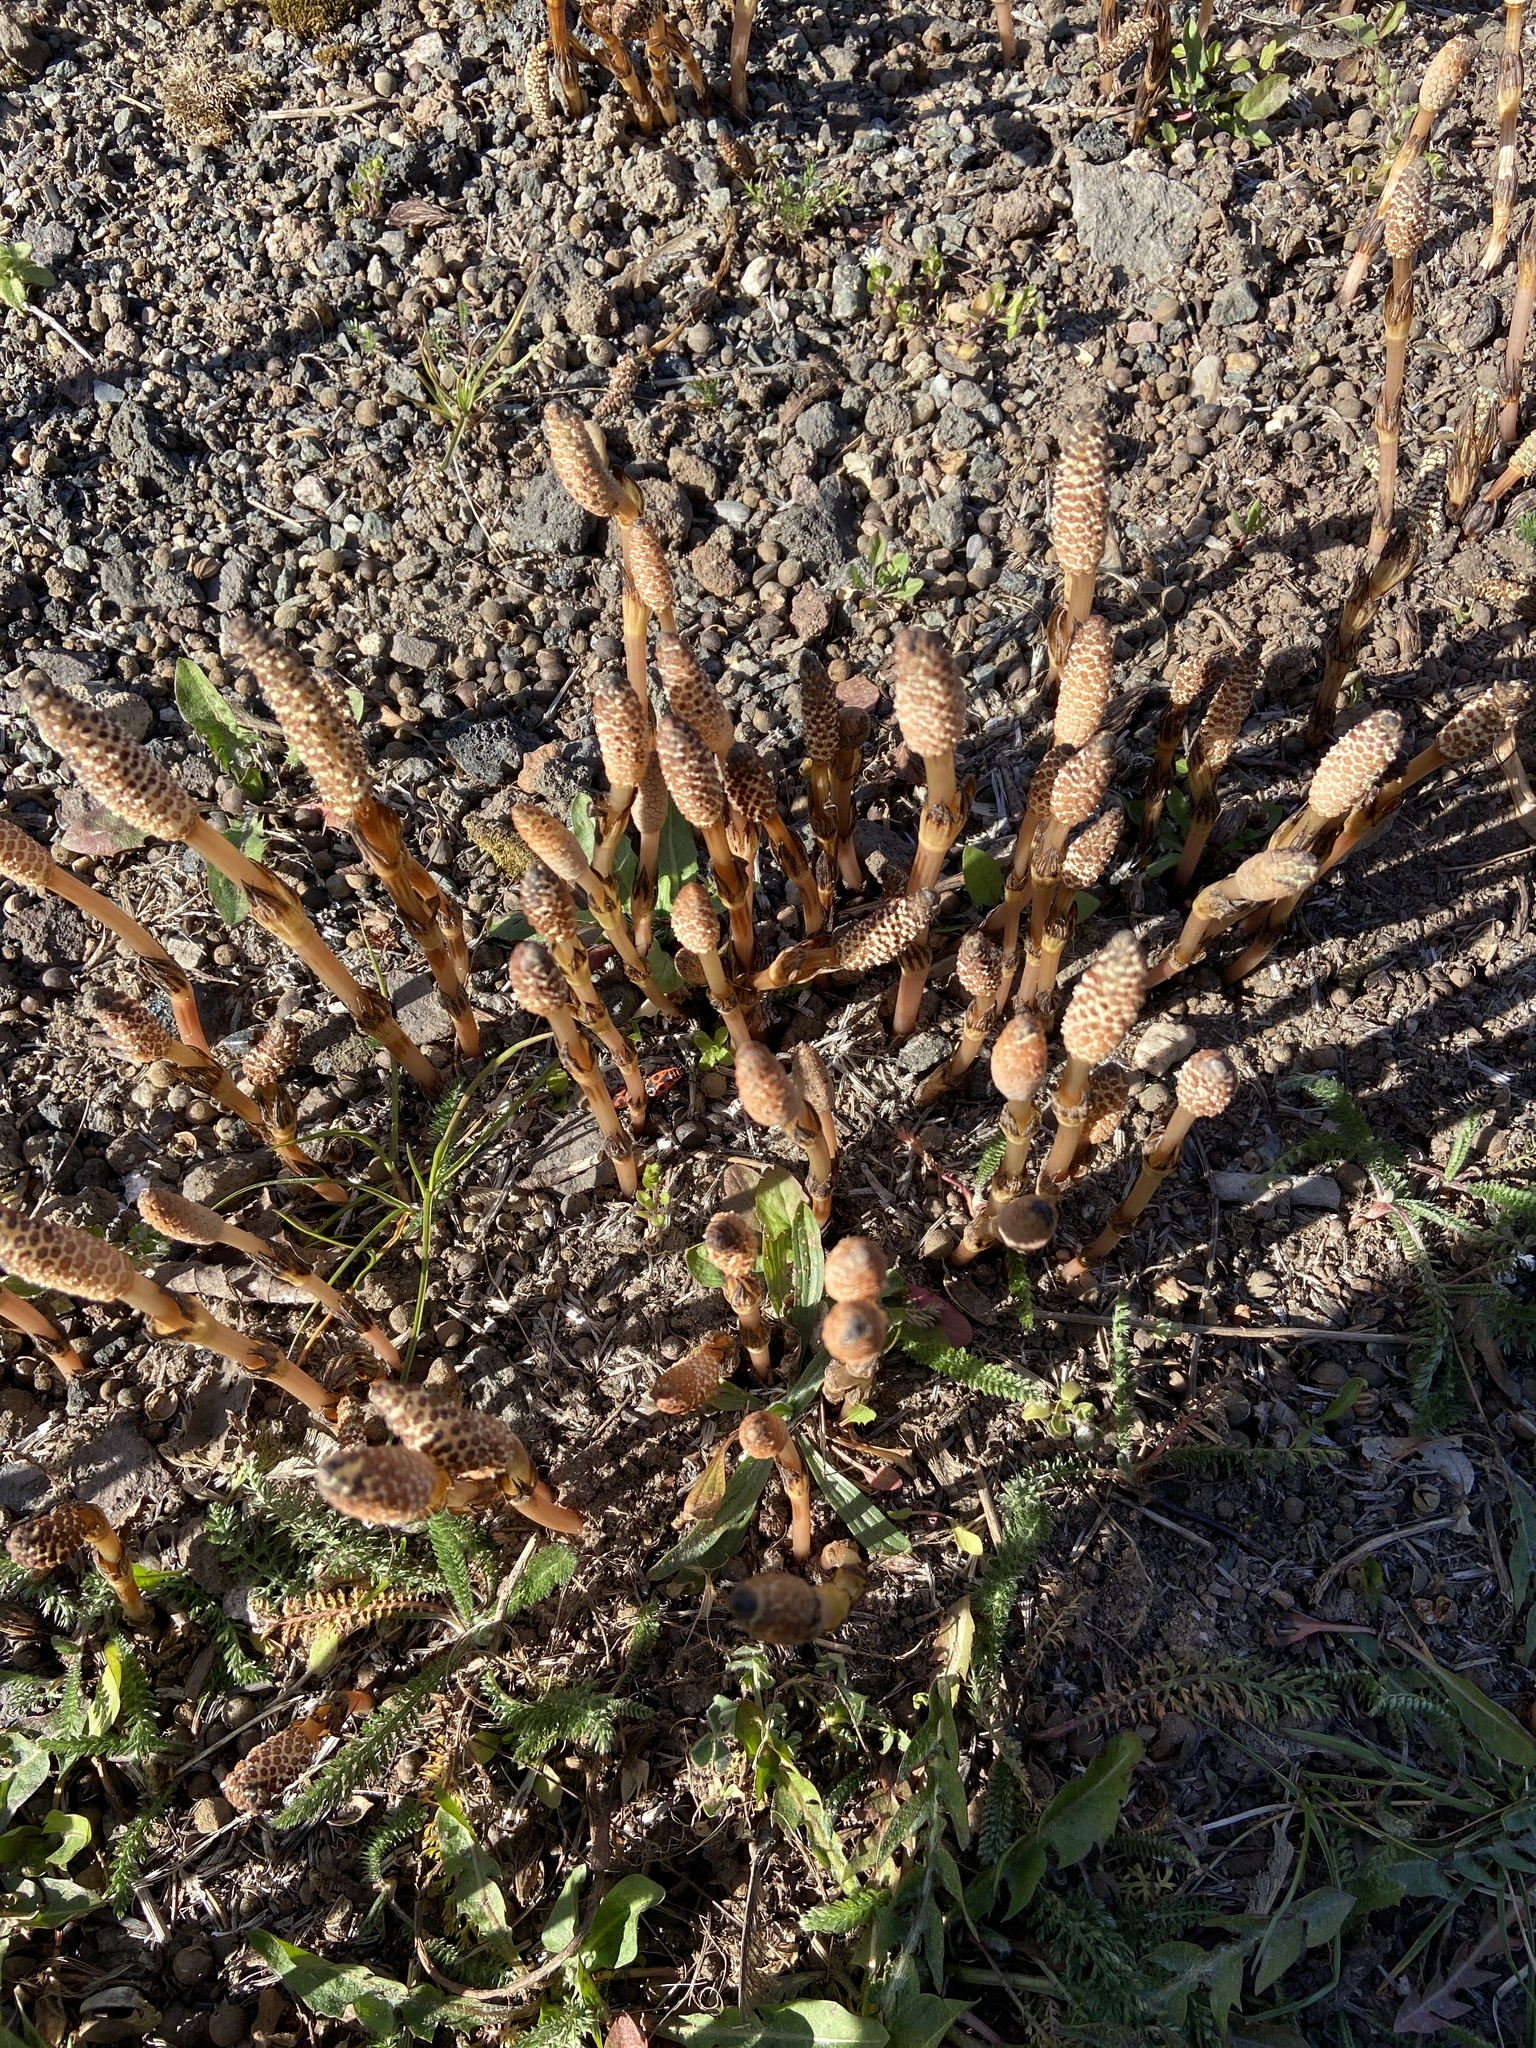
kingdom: Plantae
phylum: Tracheophyta
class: Polypodiopsida
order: Equisetales
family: Equisetaceae
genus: Equisetum
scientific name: Equisetum arvense
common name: Field horsetail
